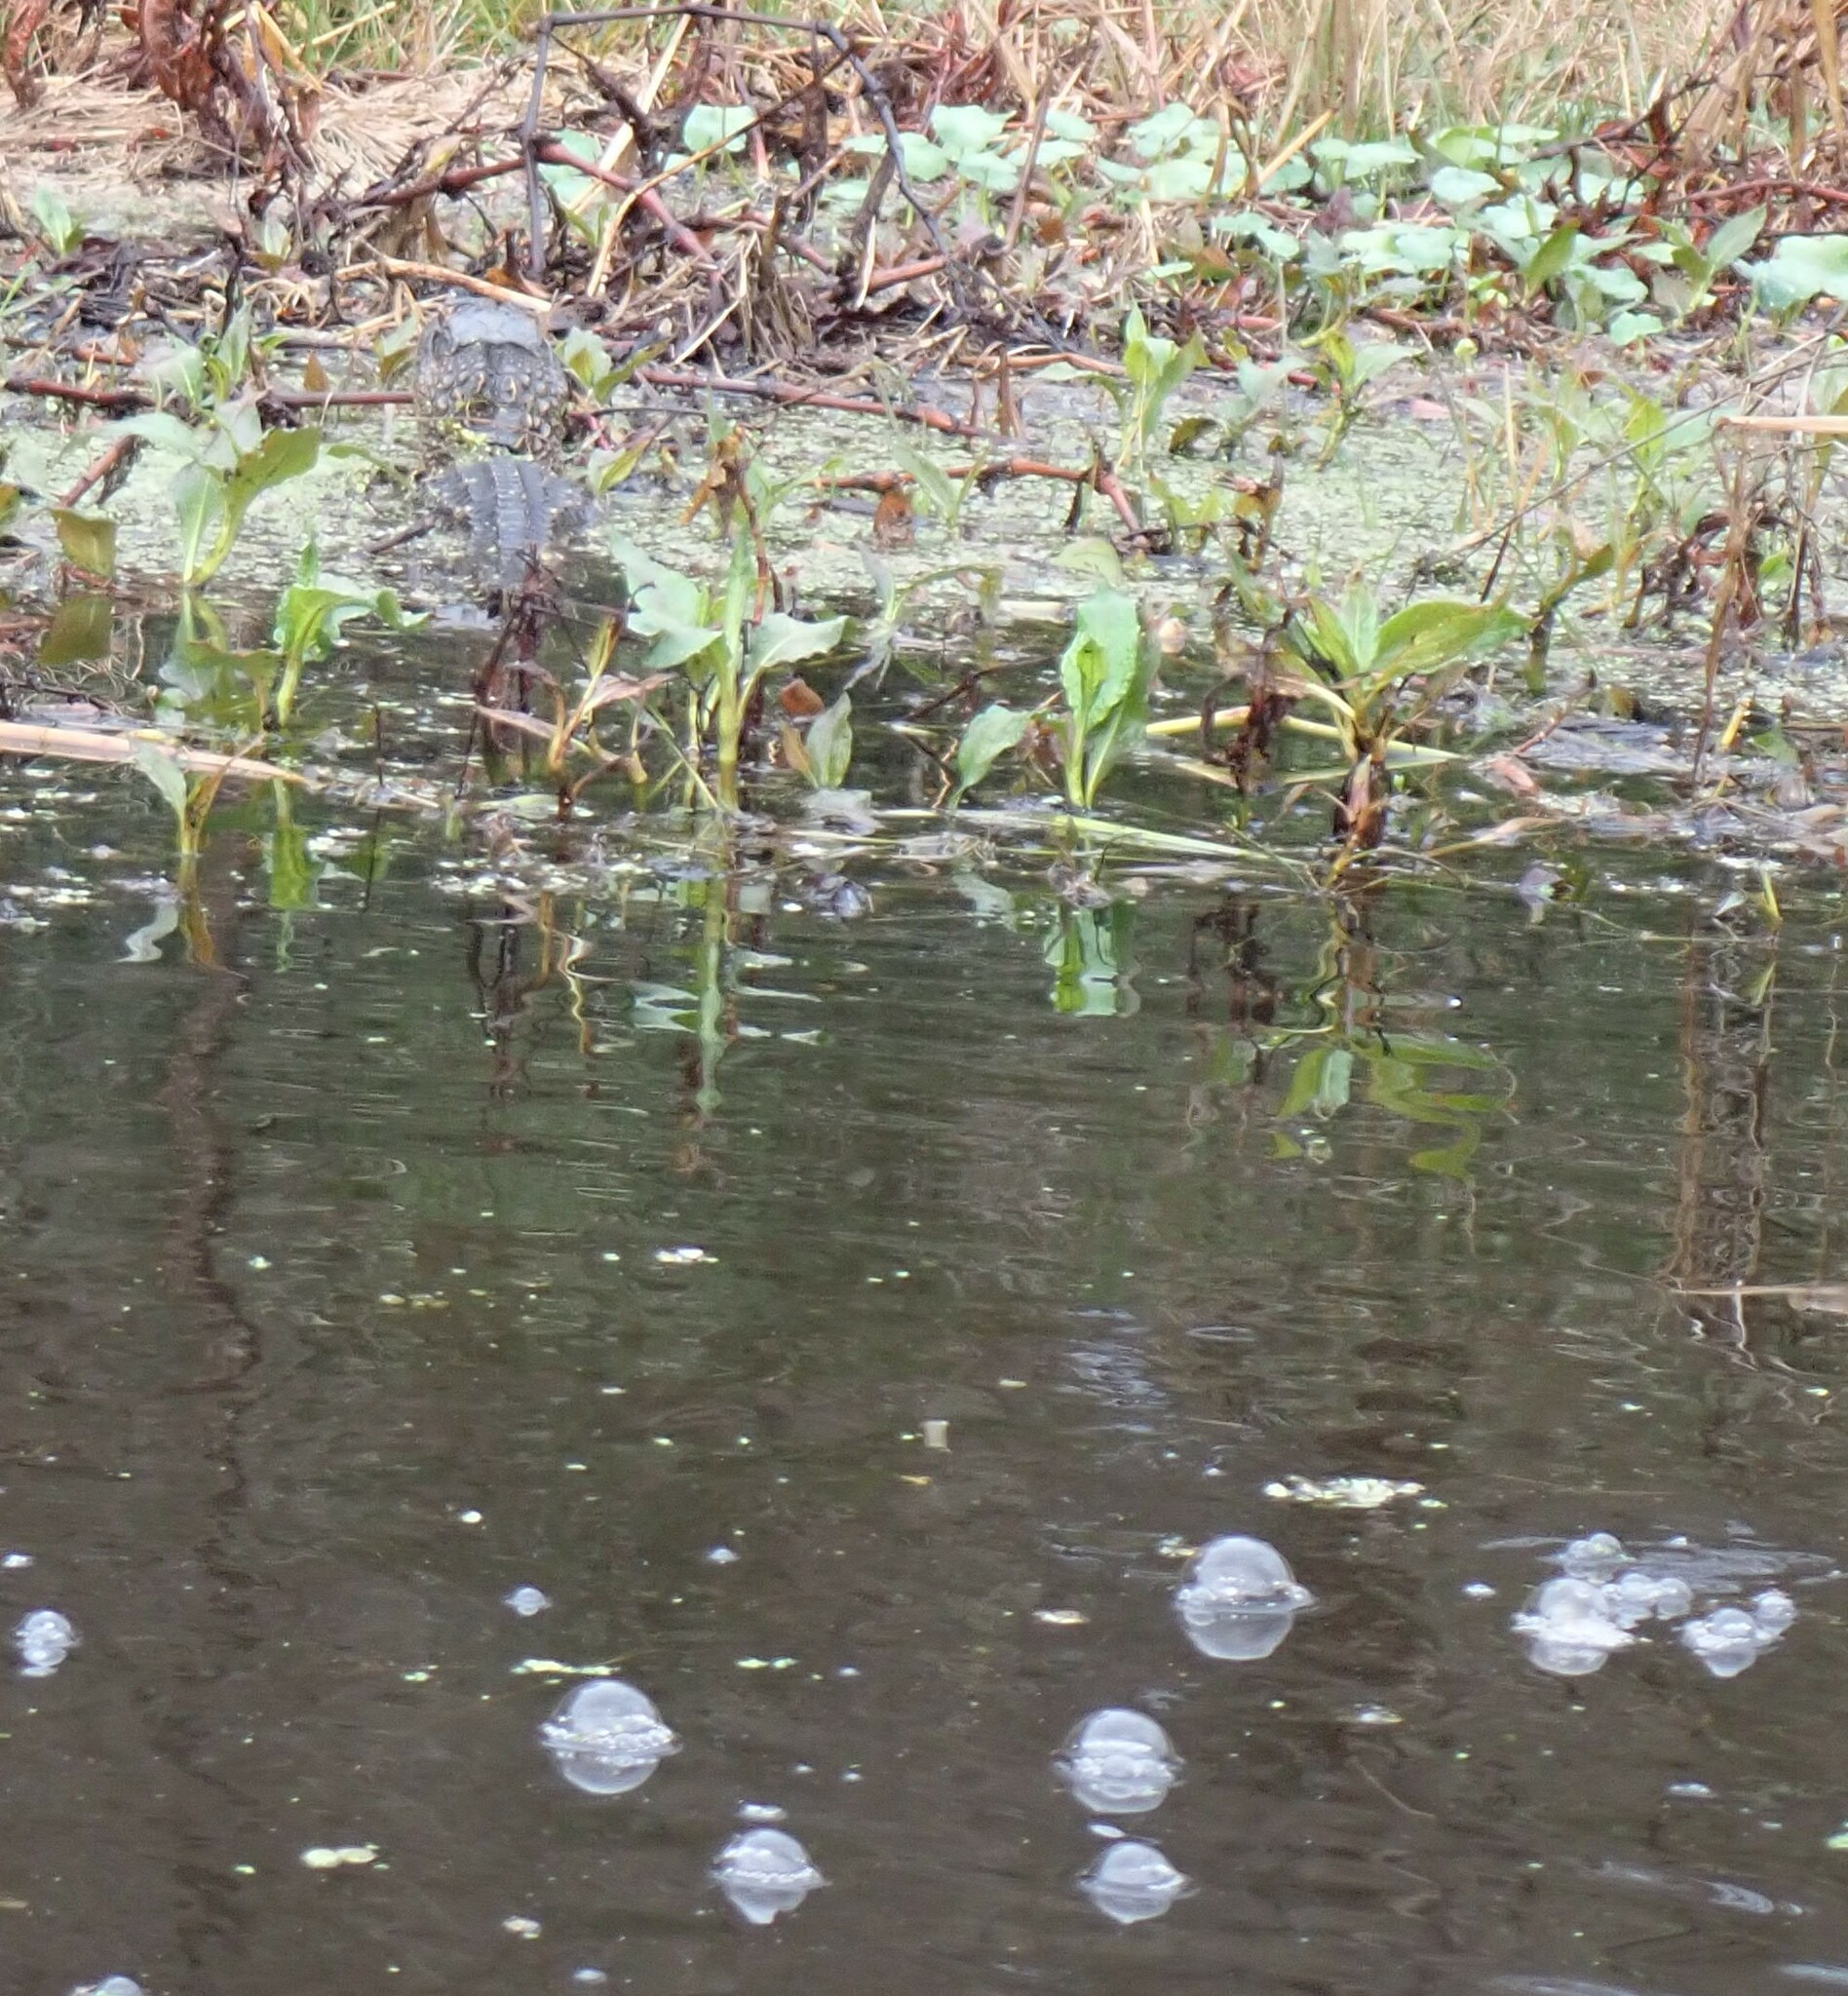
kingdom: Animalia
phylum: Chordata
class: Crocodylia
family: Alligatoridae
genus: Alligator
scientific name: Alligator mississippiensis
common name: American alligator
